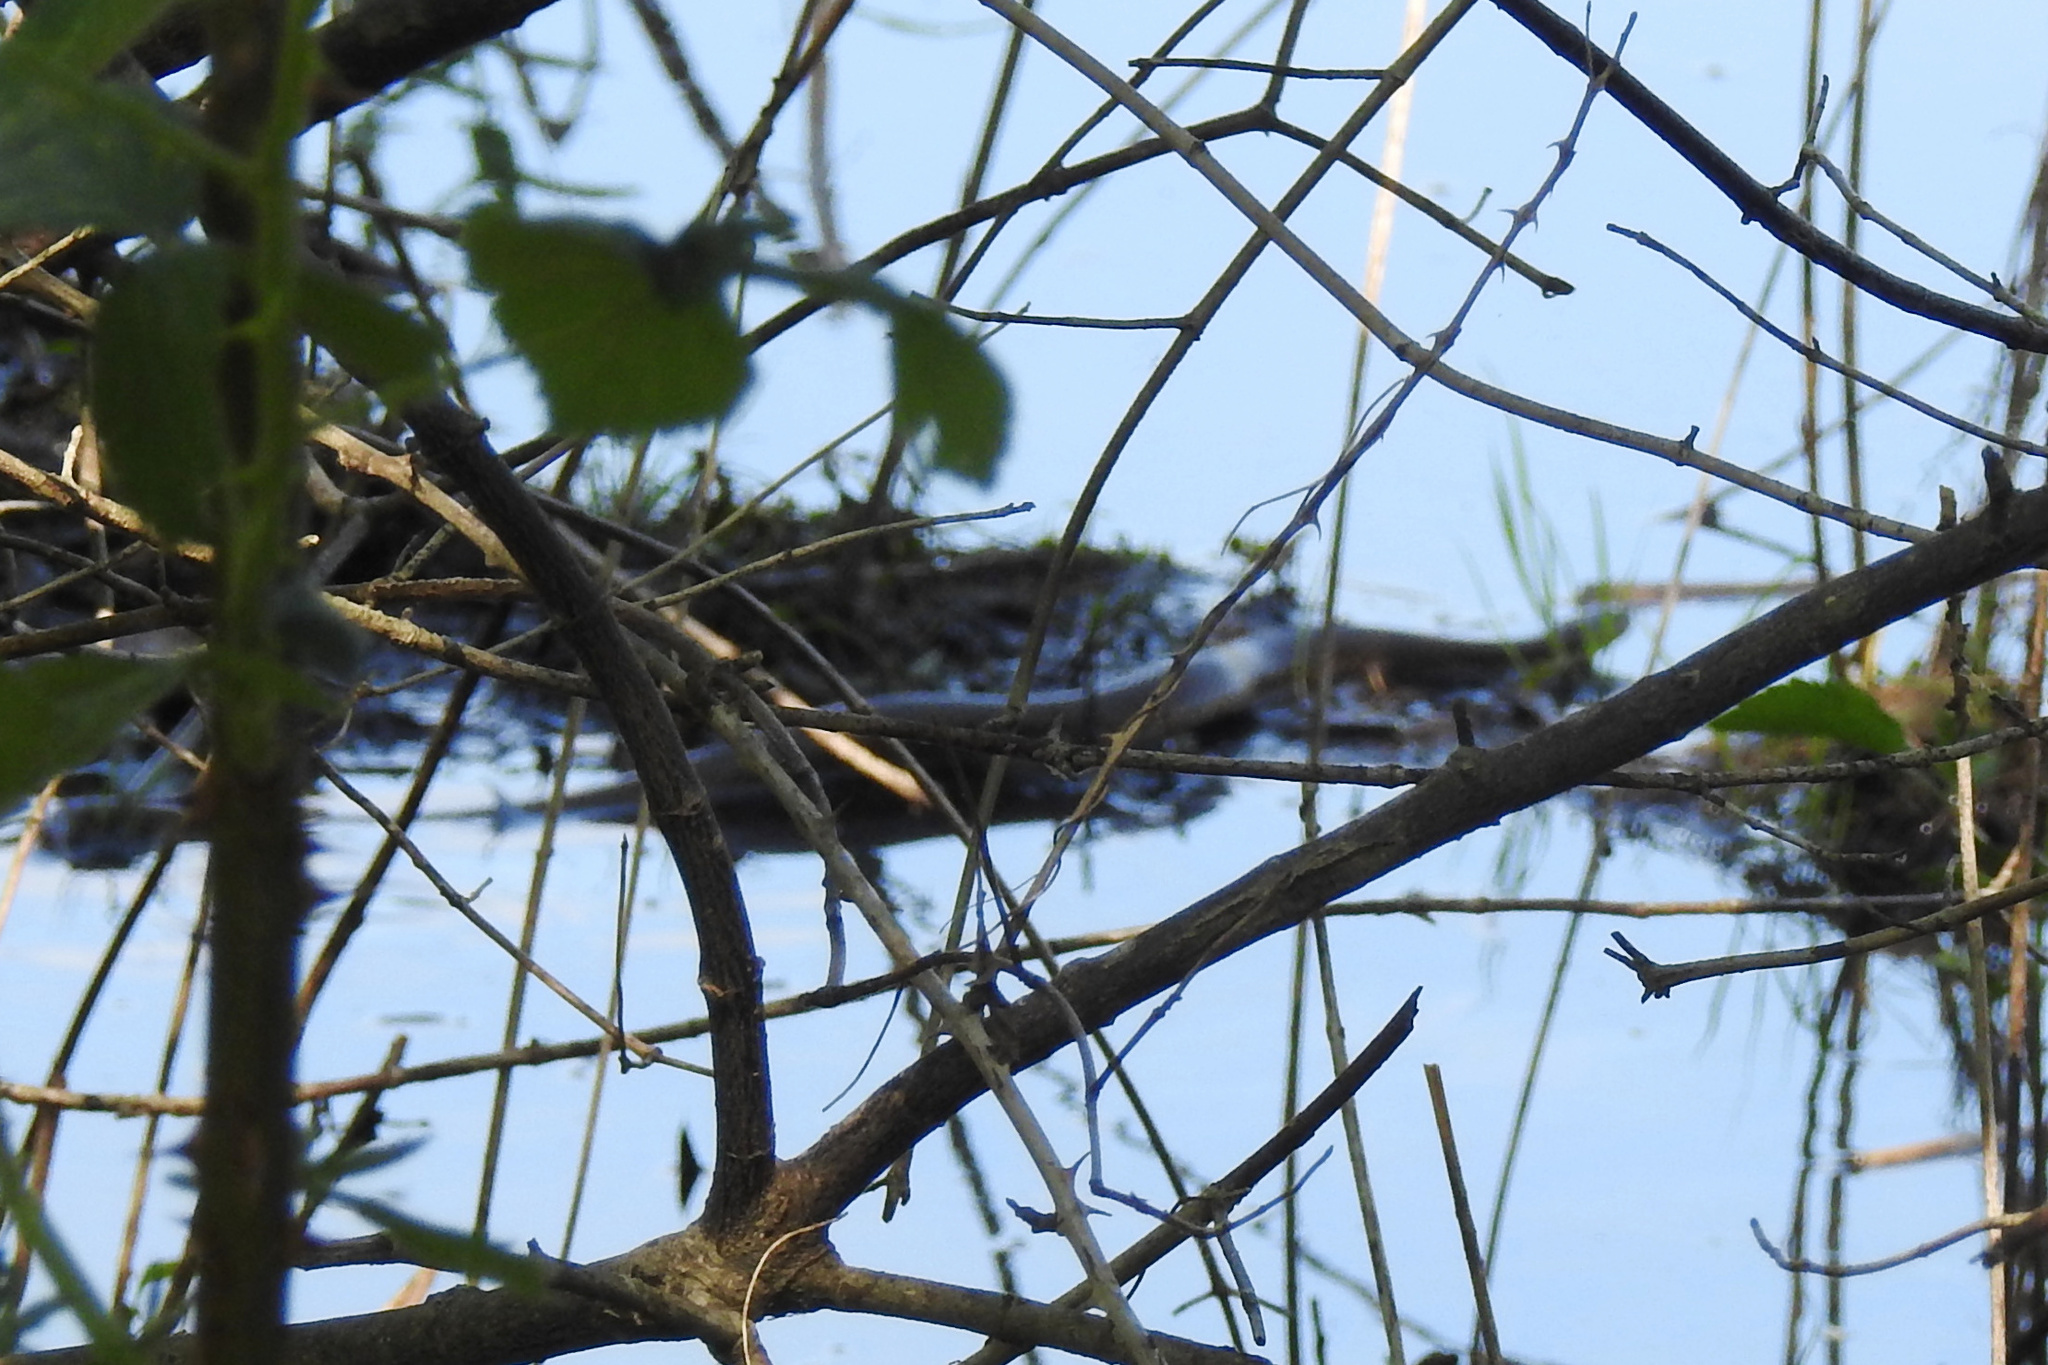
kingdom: Animalia
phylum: Chordata
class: Squamata
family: Colubridae
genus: Nerodia
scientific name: Nerodia sipedon
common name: Northern water snake
